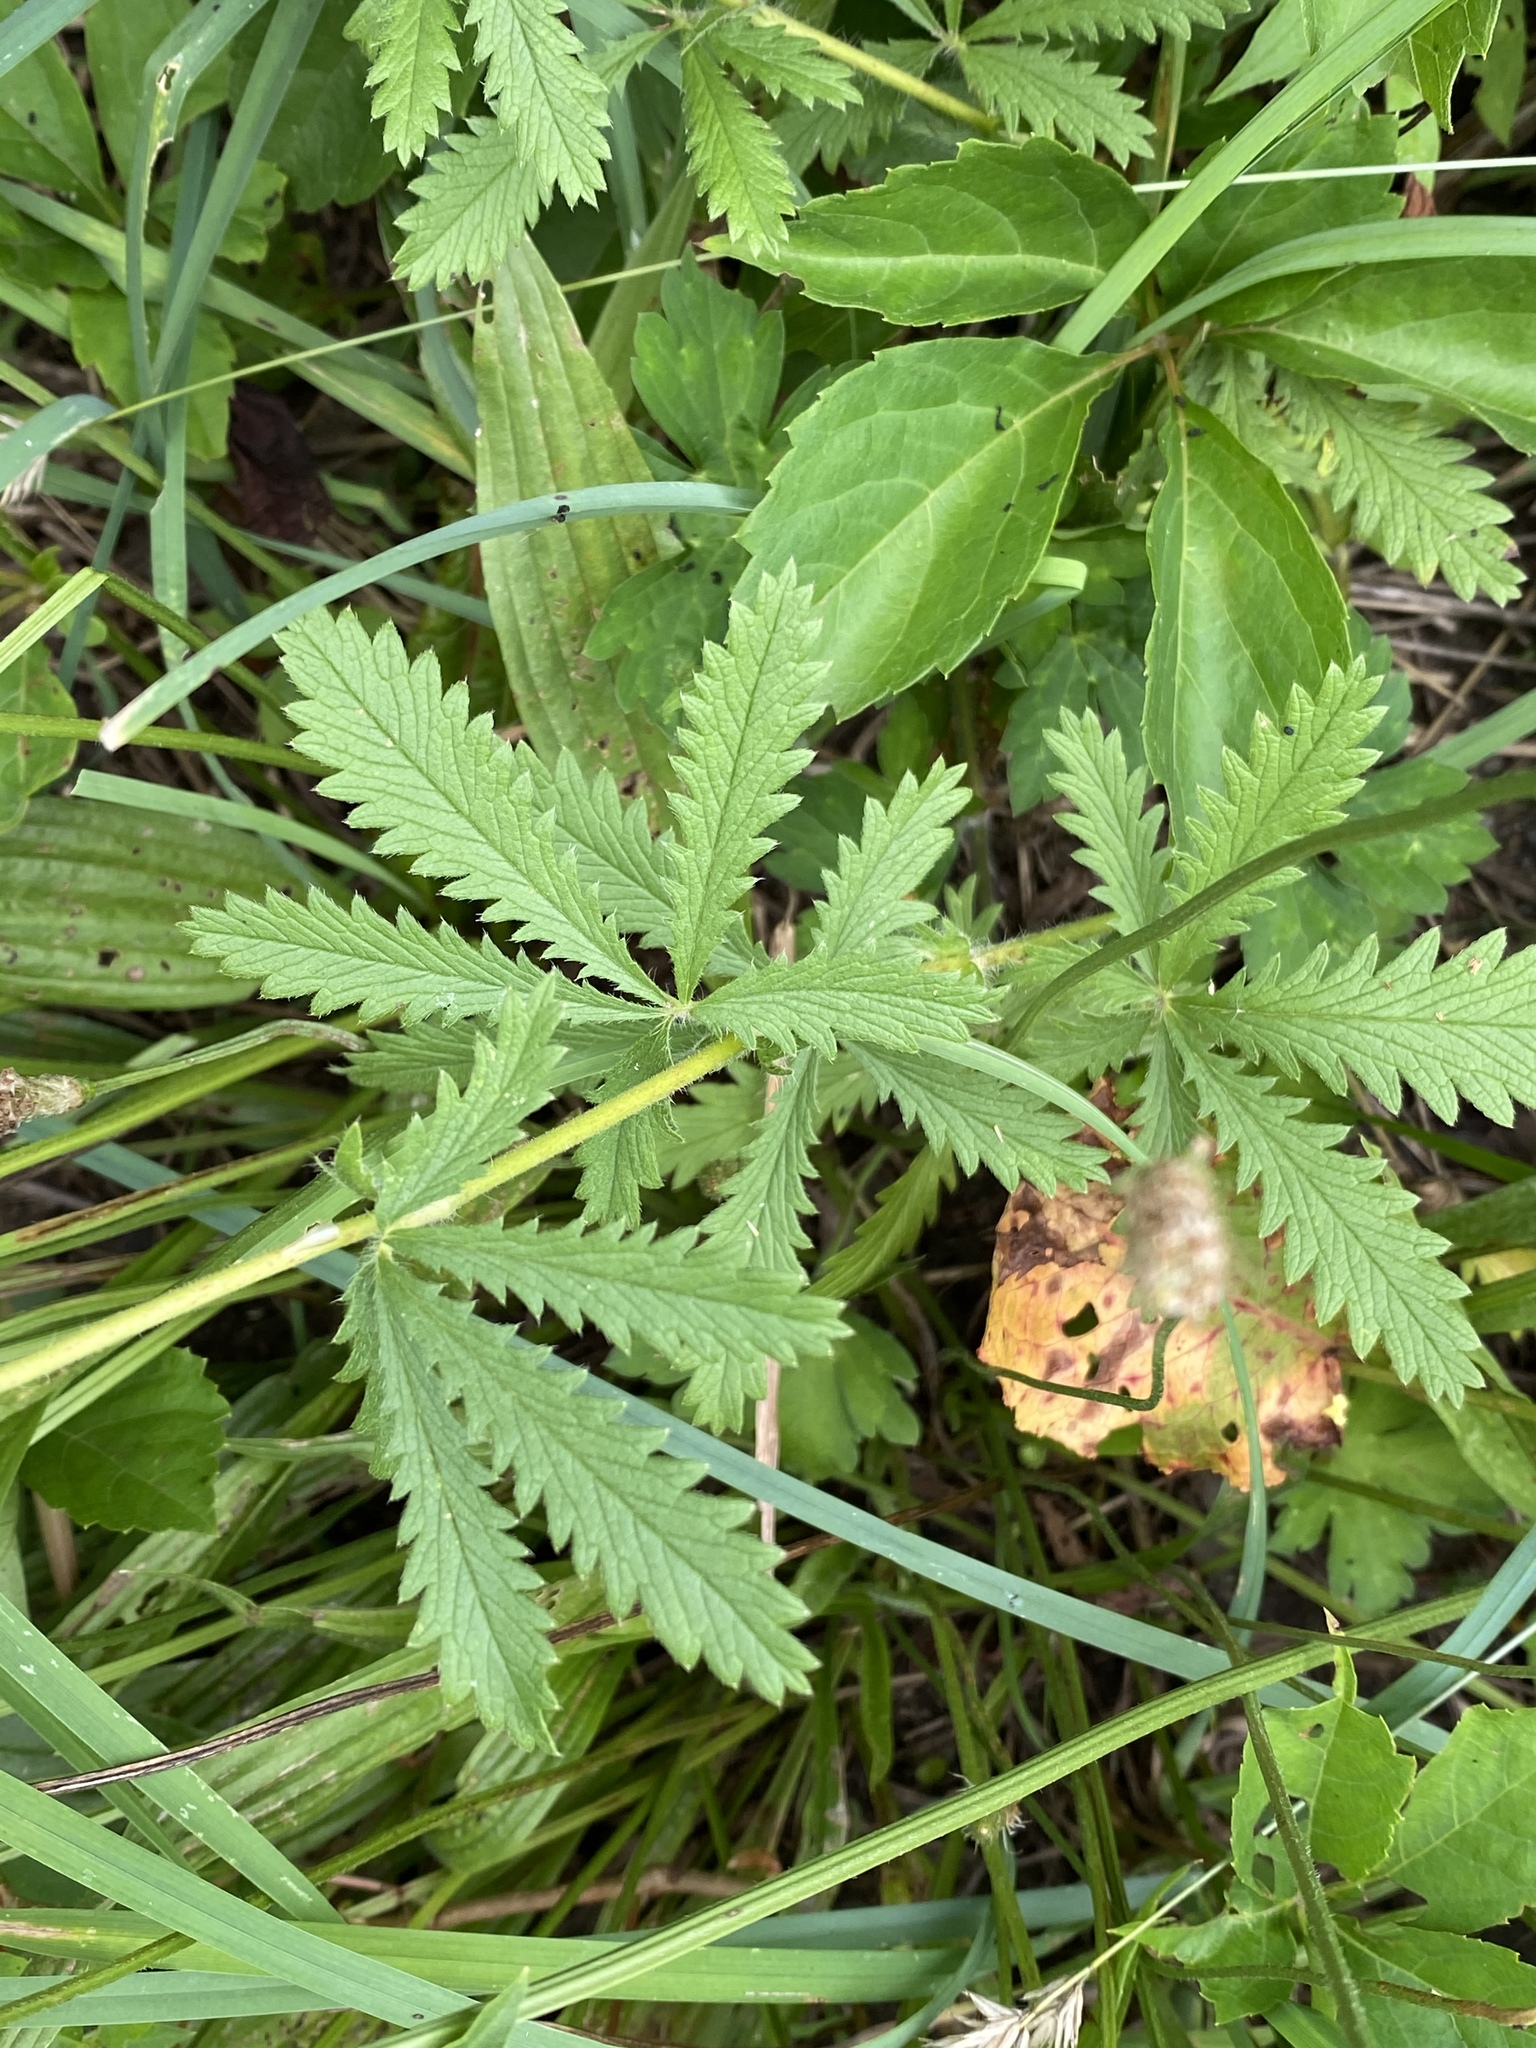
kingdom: Plantae
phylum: Tracheophyta
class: Magnoliopsida
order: Rosales
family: Rosaceae
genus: Potentilla
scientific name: Potentilla recta
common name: Sulphur cinquefoil
